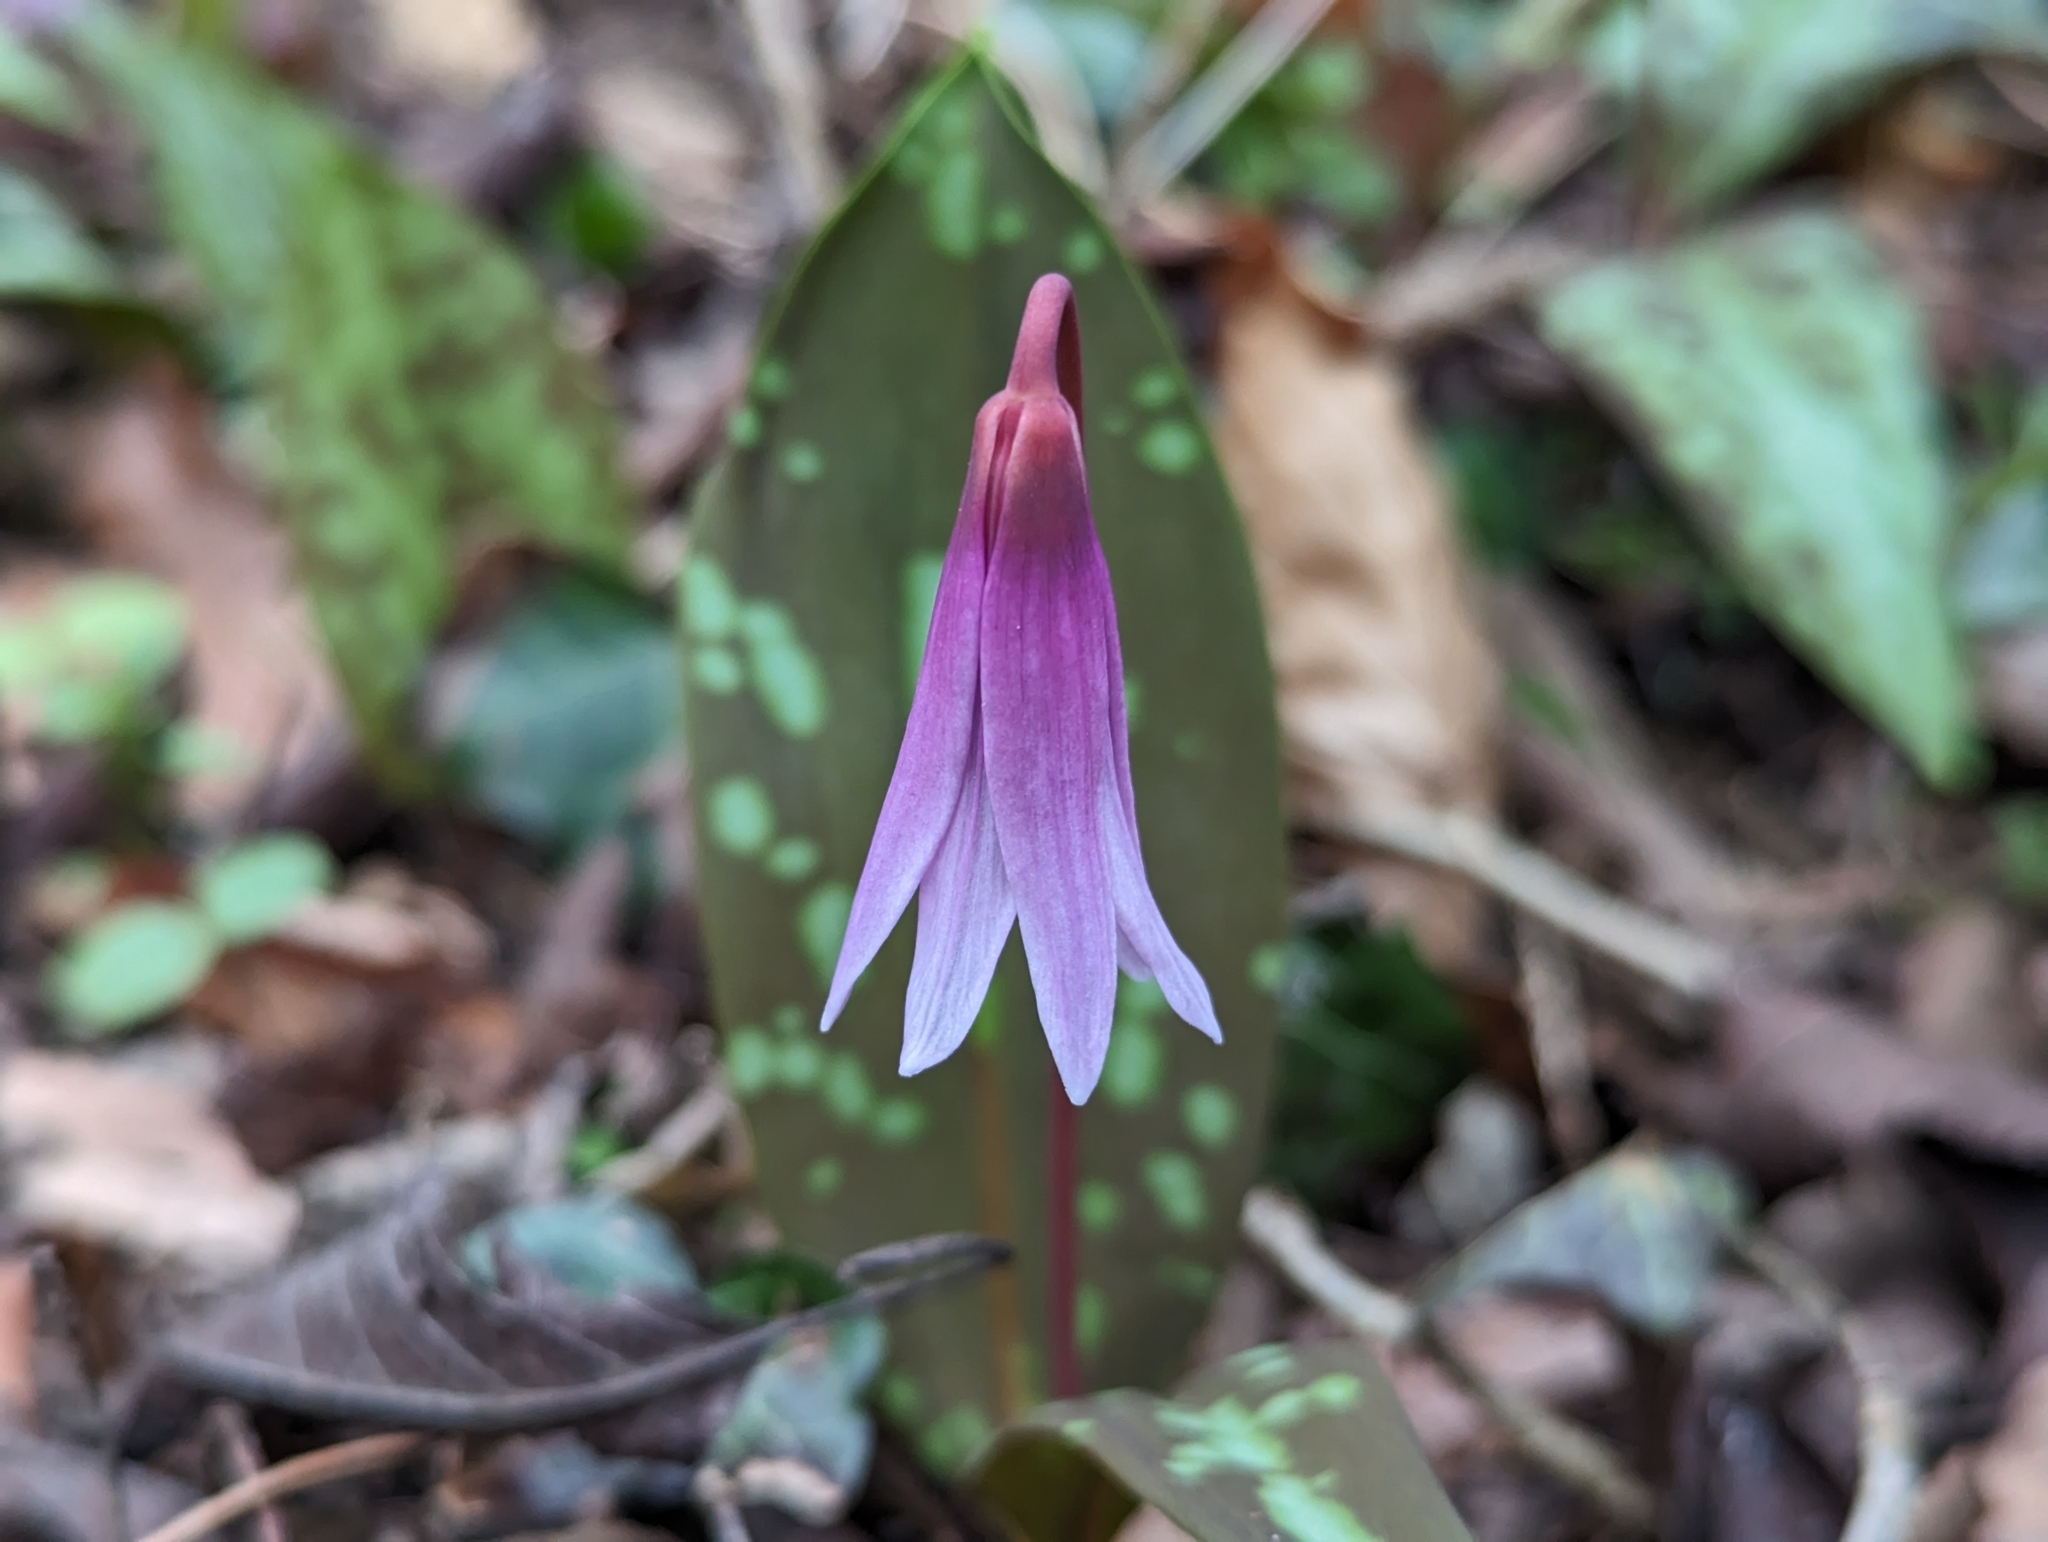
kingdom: Plantae
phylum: Tracheophyta
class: Liliopsida
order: Liliales
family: Liliaceae
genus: Erythronium
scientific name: Erythronium dens-canis
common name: Dog's-tooth-violet
